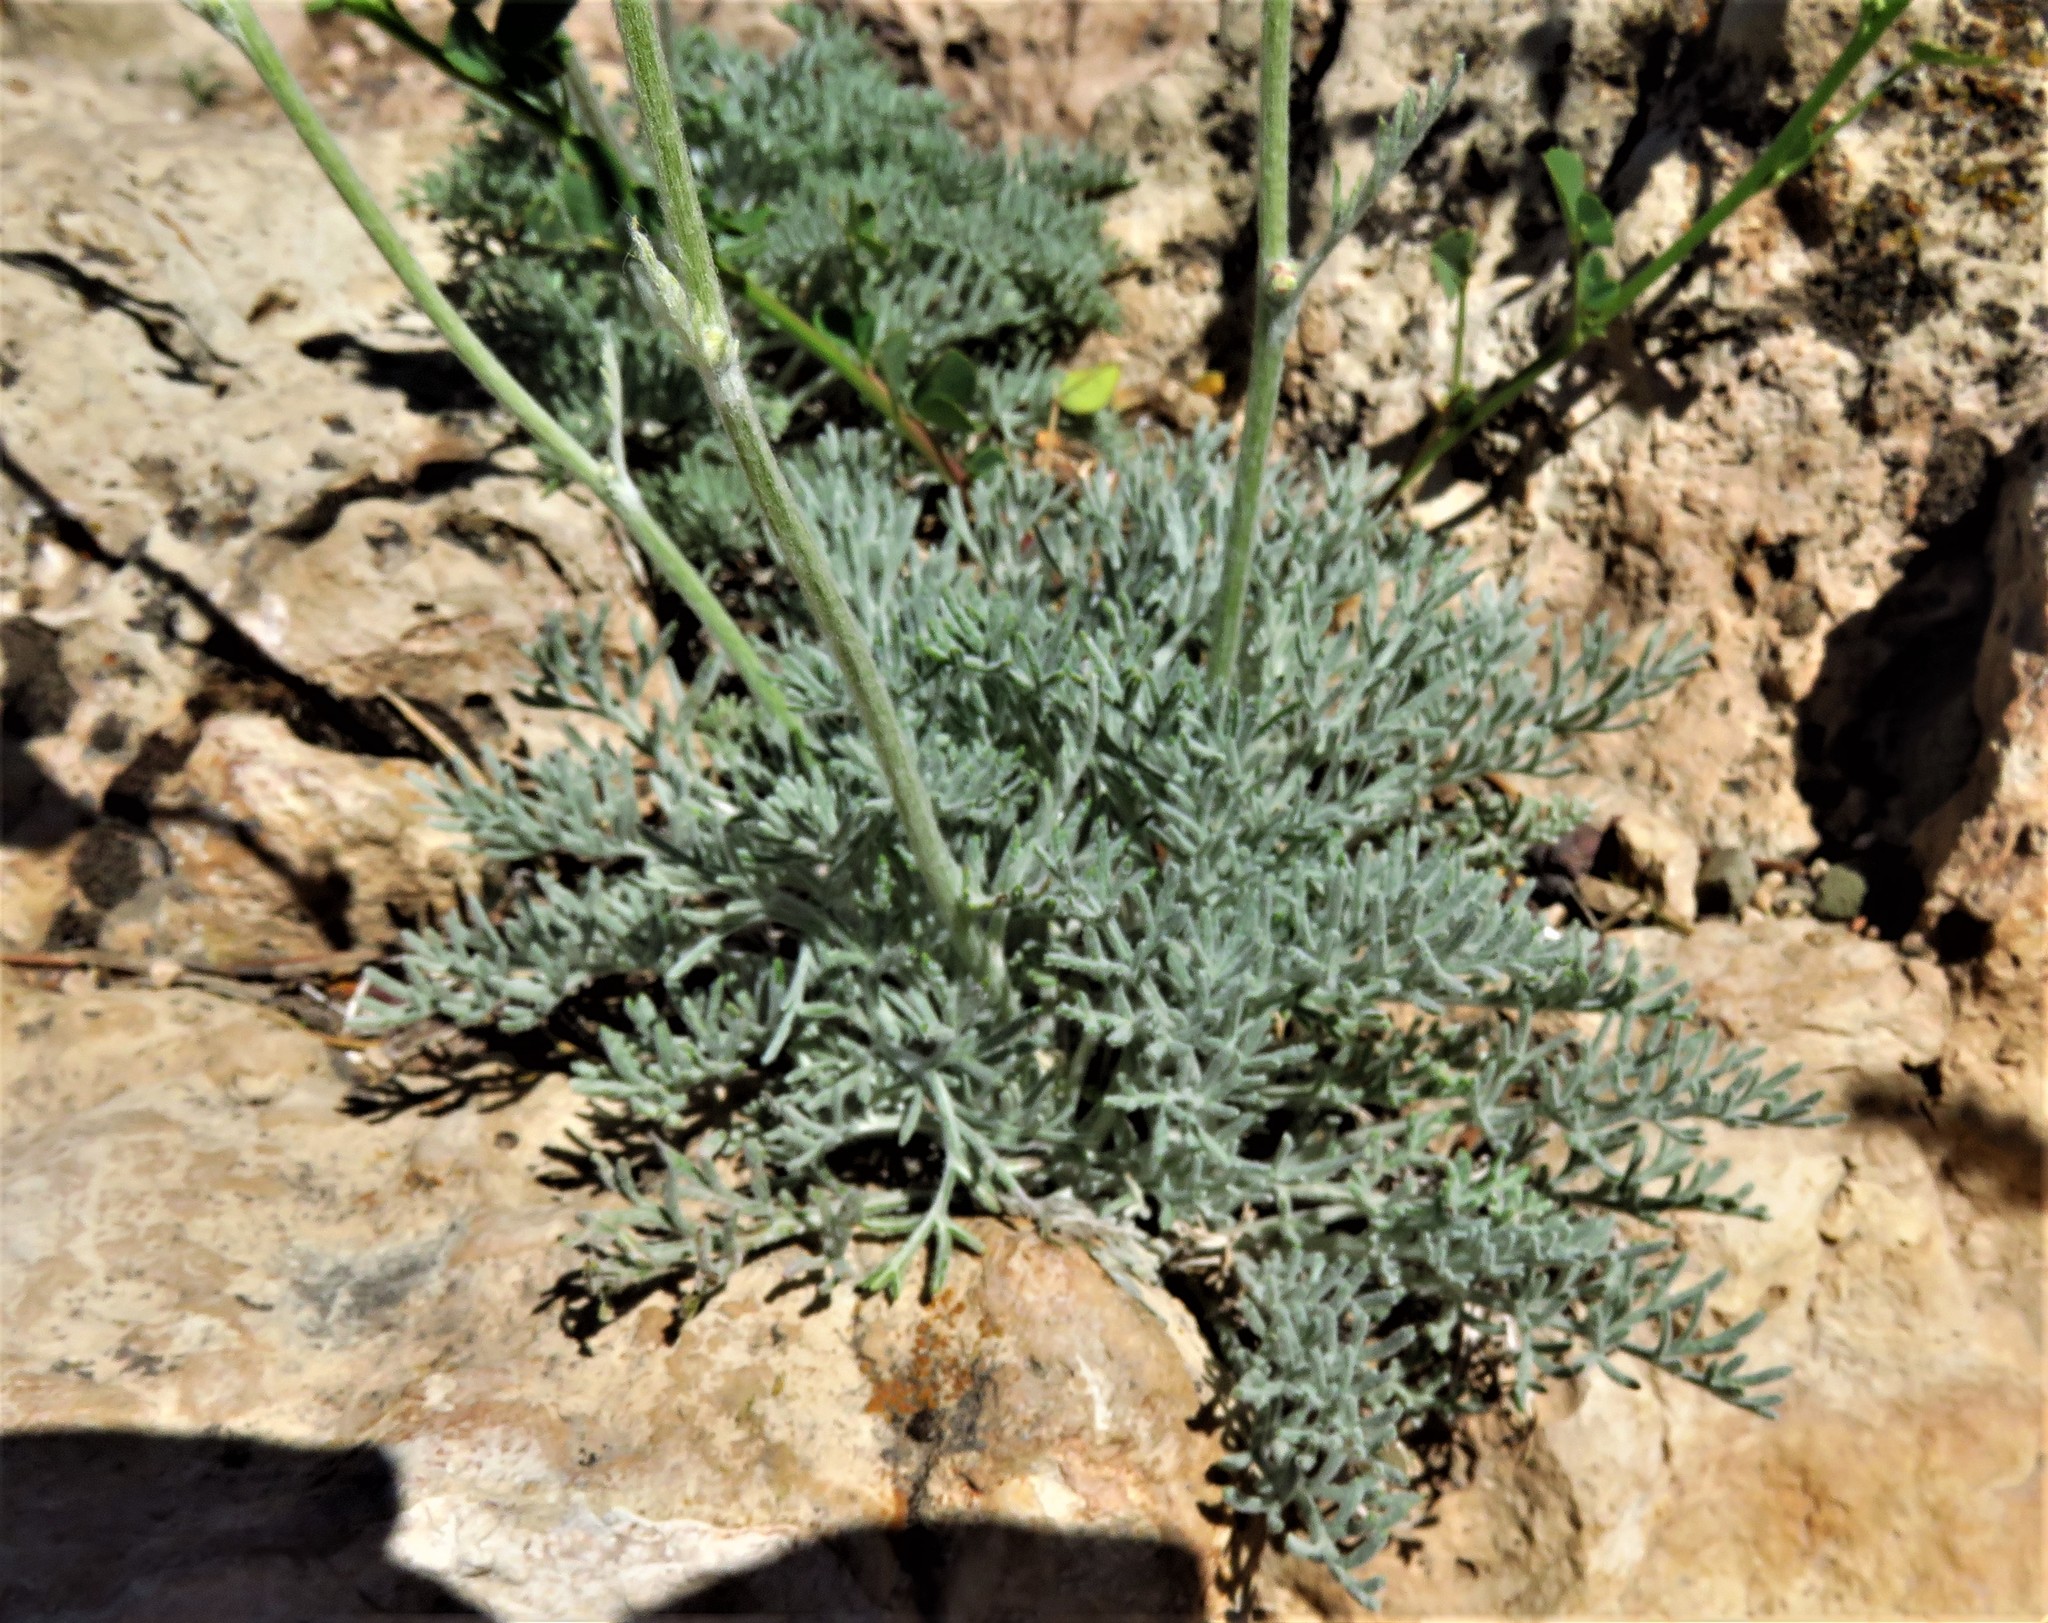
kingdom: Plantae
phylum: Tracheophyta
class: Magnoliopsida
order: Asterales
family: Asteraceae
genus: Hymenopappus
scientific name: Hymenopappus filifolius
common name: Columbia cutleaf
